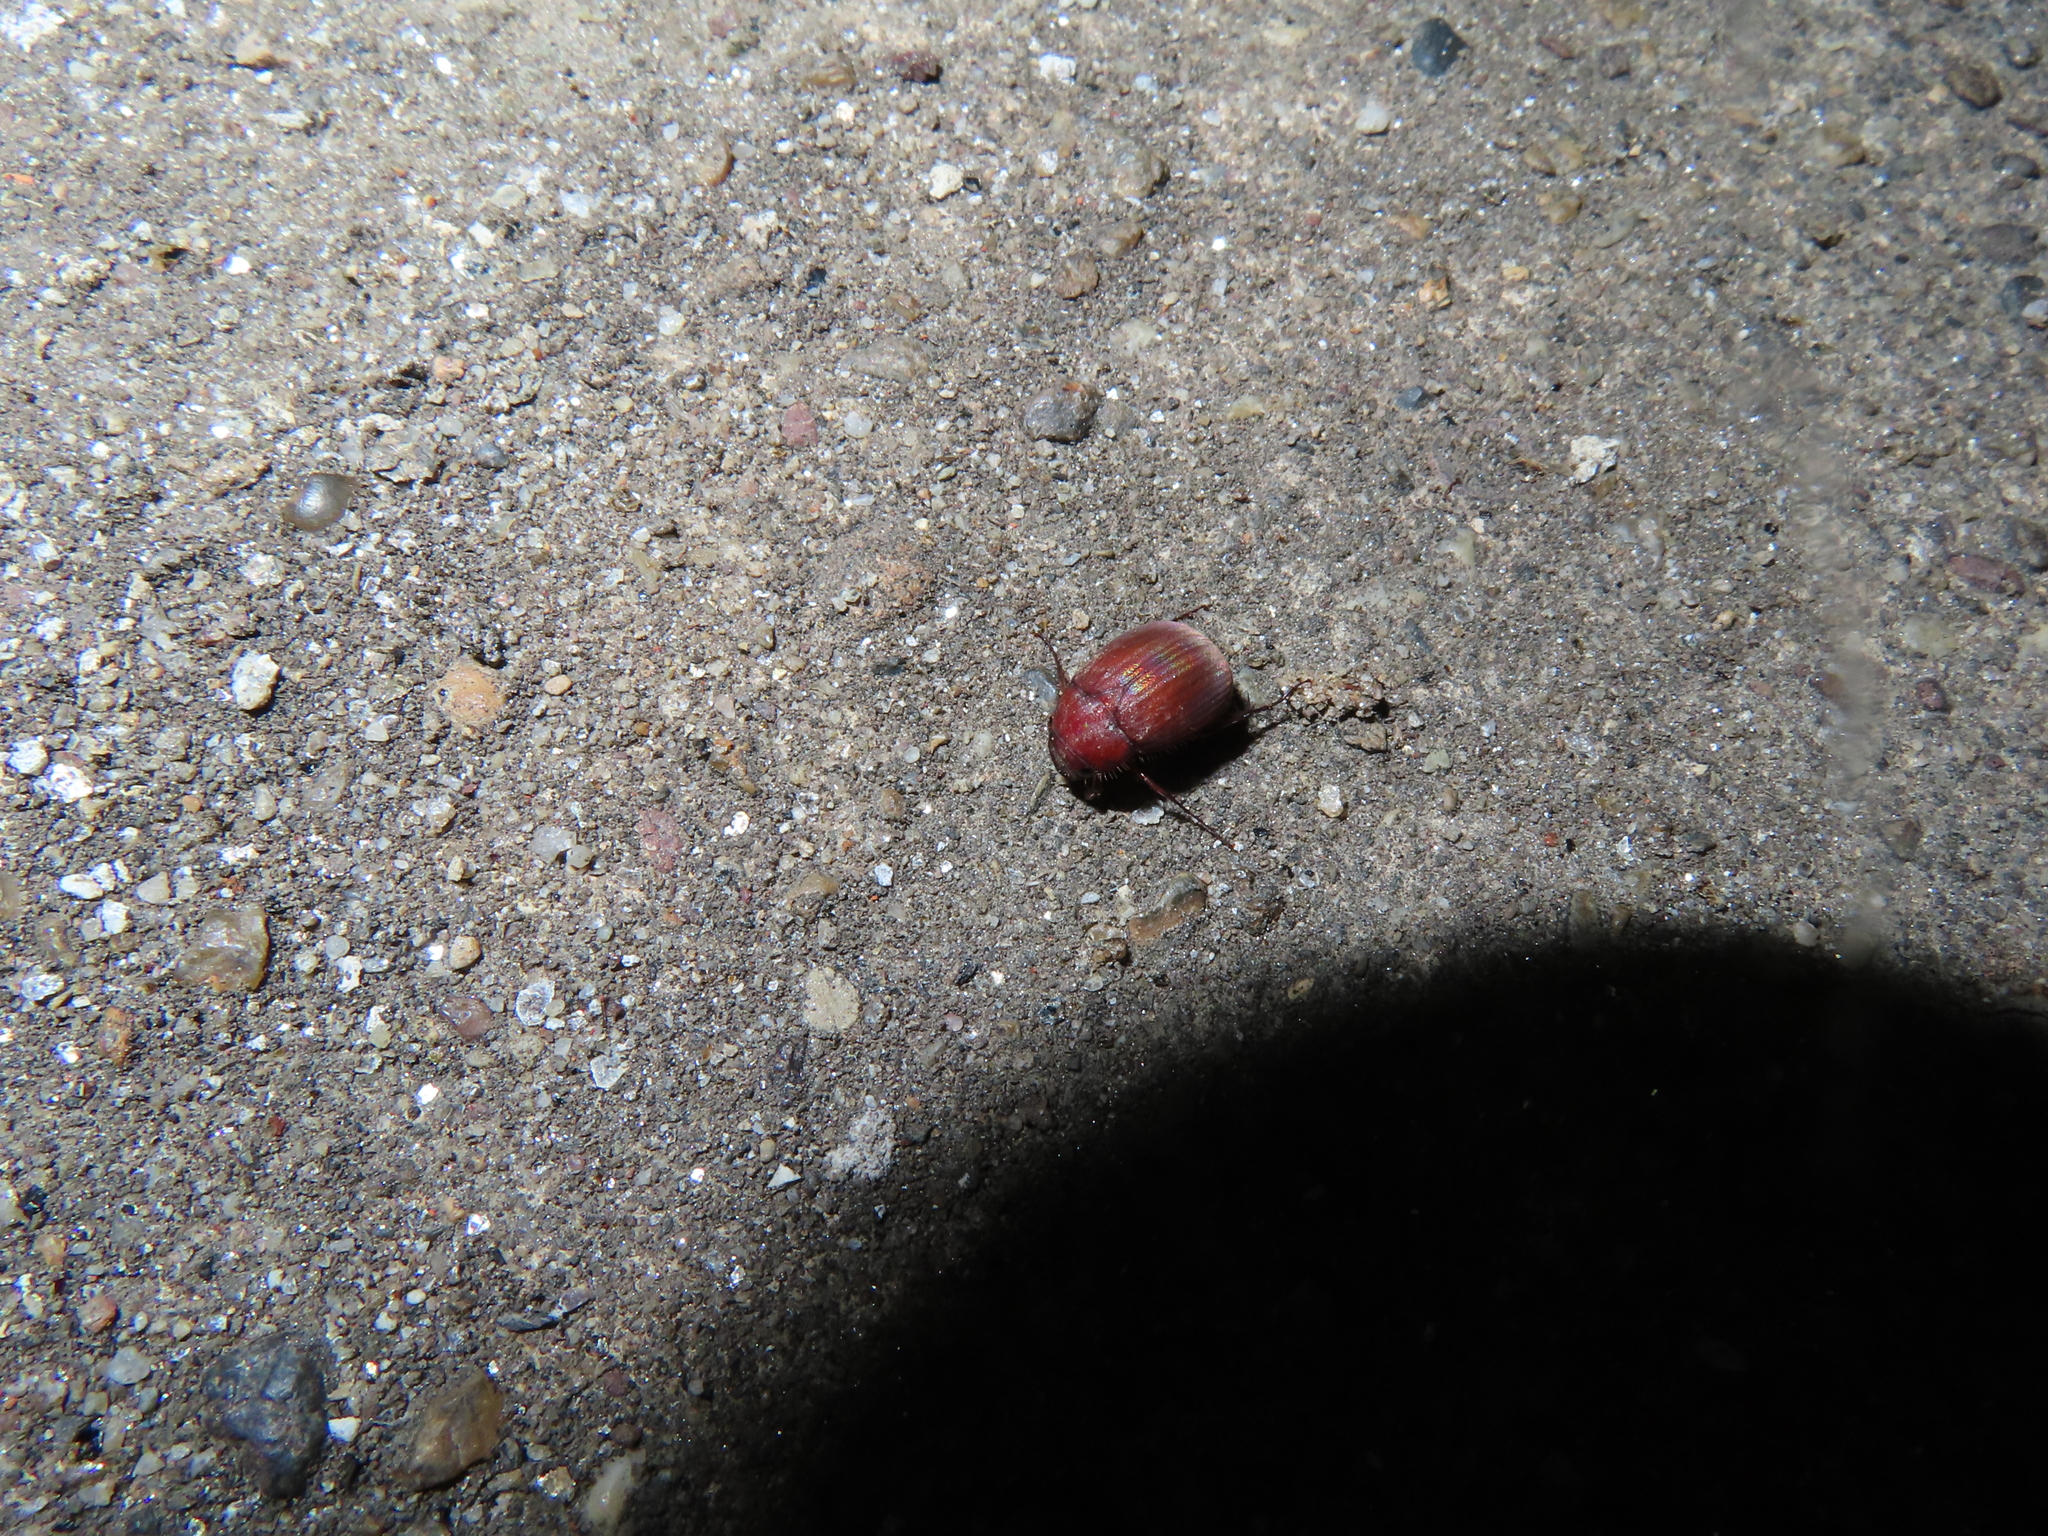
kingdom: Animalia
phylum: Arthropoda
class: Insecta
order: Coleoptera
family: Scarabaeidae
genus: Maladera
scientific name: Maladera formosae
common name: Asiatic garden beetle
